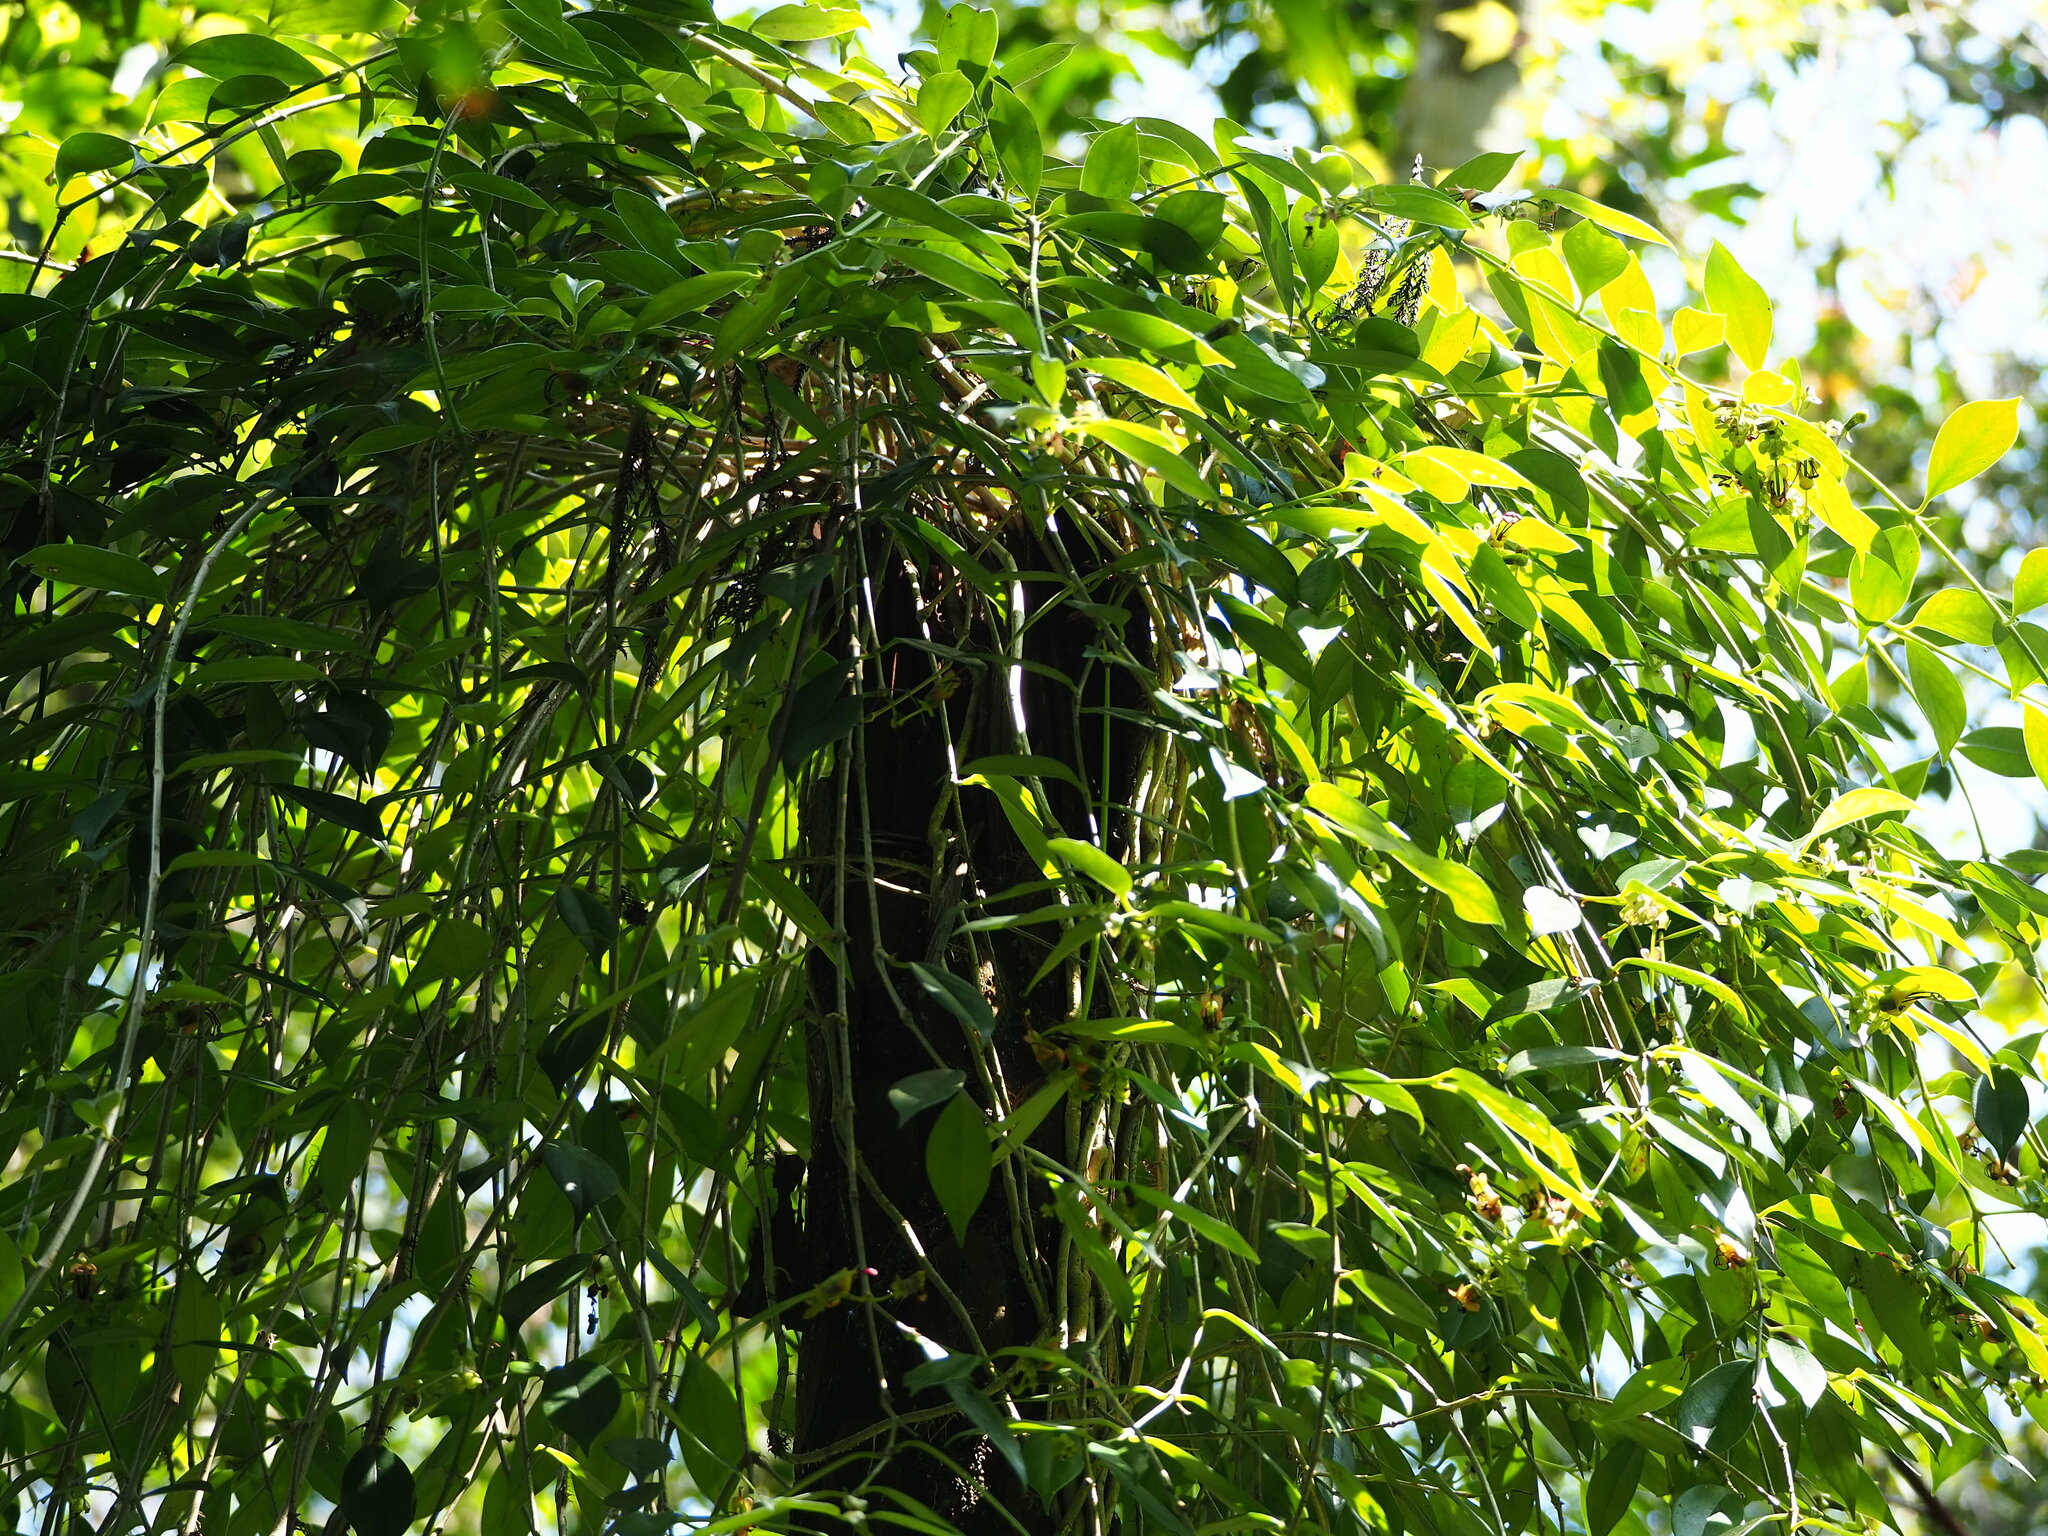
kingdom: Plantae
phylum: Tracheophyta
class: Magnoliopsida
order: Lamiales
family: Gesneriaceae
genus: Aeschynanthus
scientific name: Aeschynanthus acuminatus
